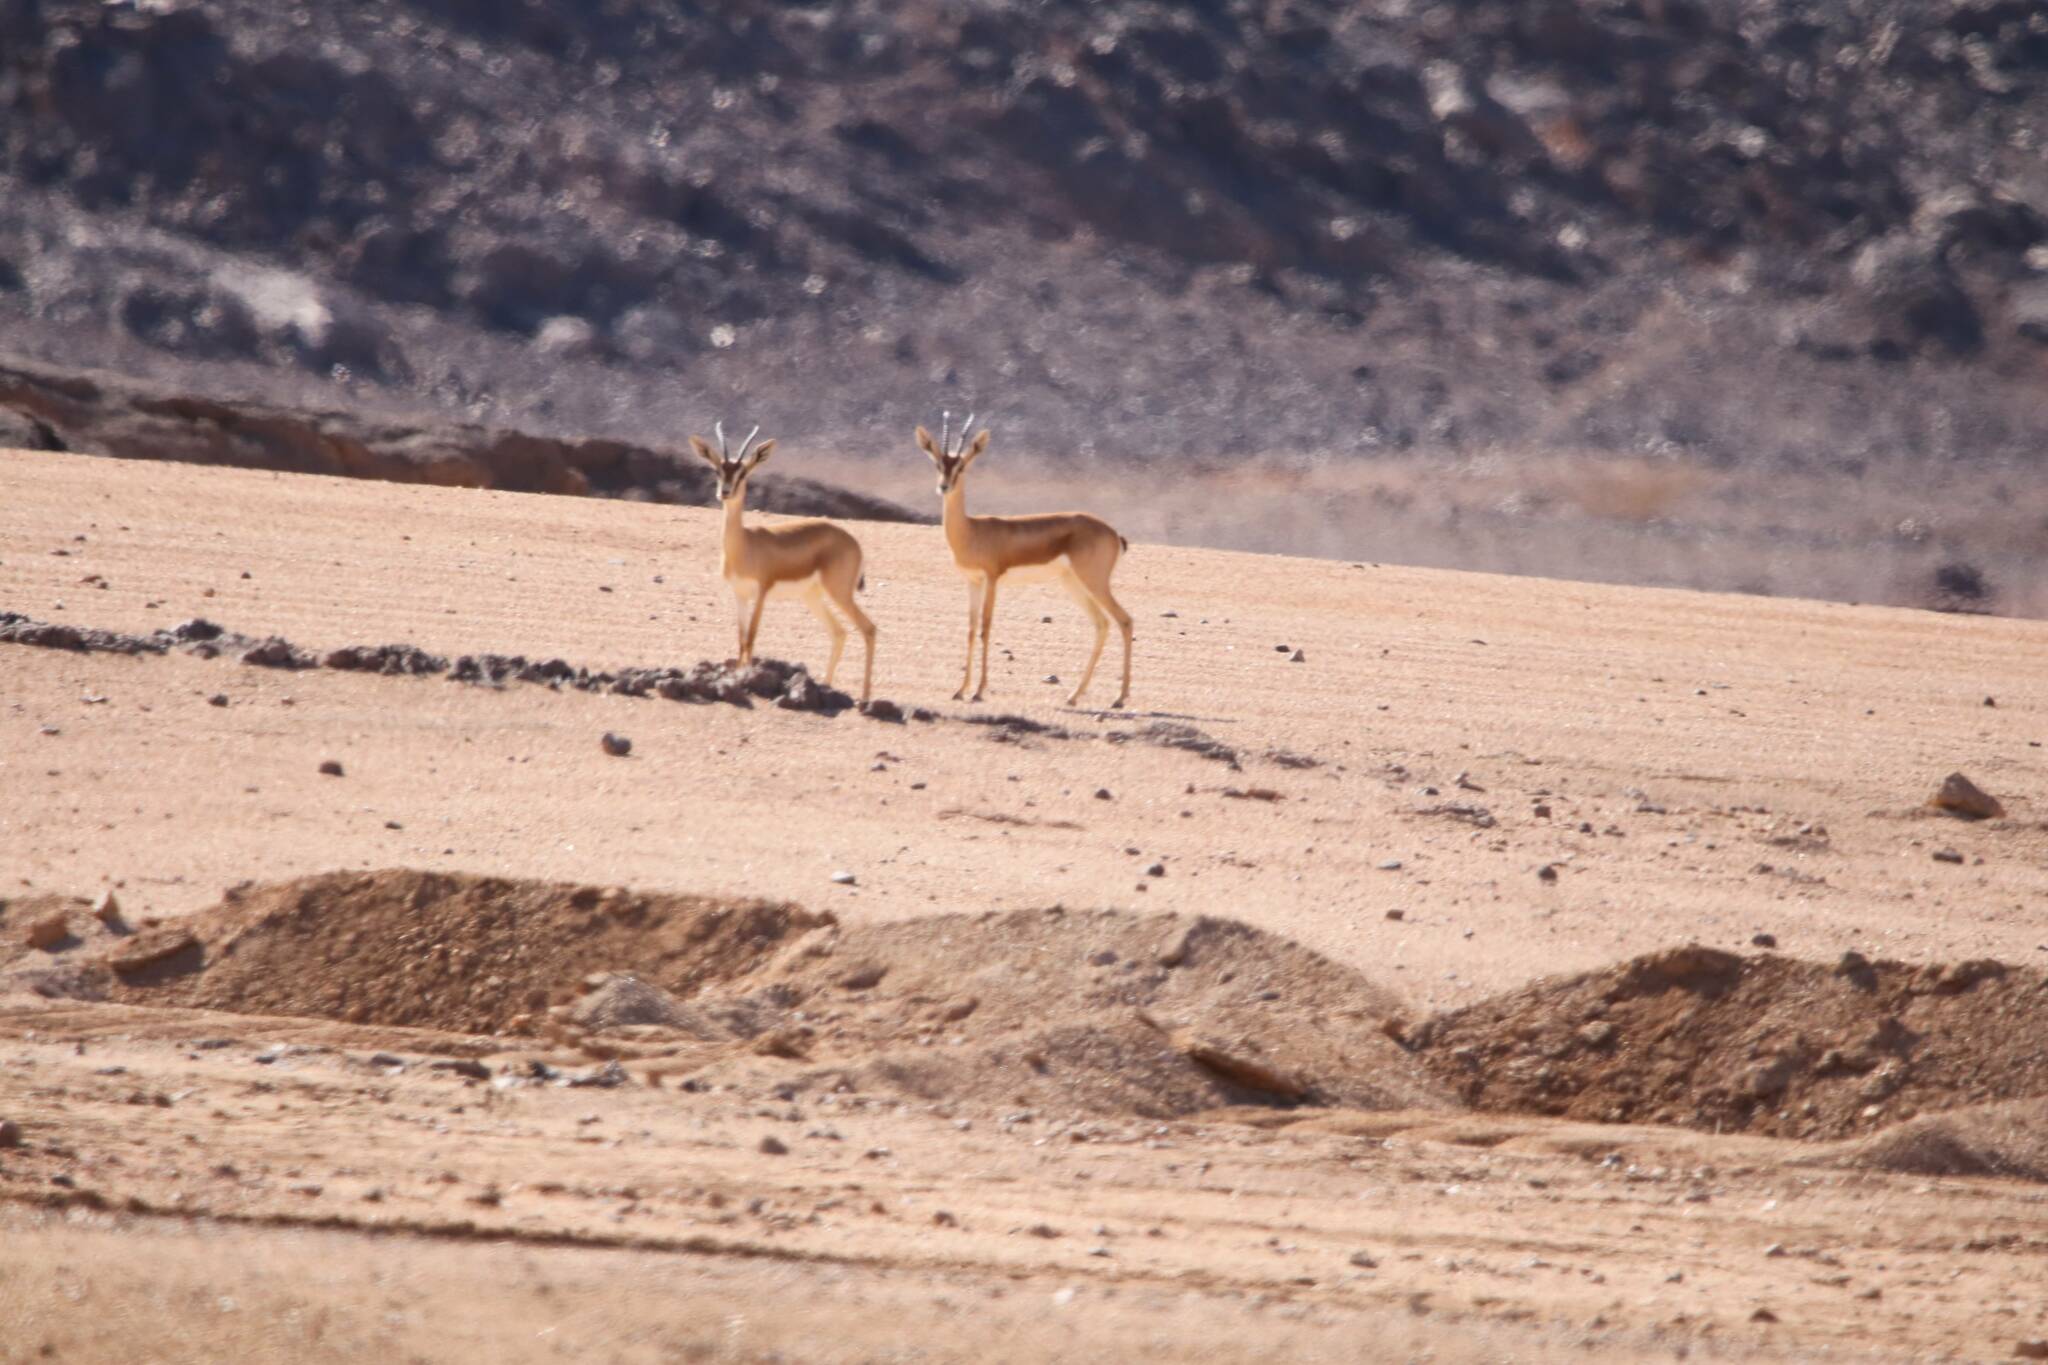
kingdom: Animalia
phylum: Chordata
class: Mammalia
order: Artiodactyla
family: Bovidae
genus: Gazella
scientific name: Gazella dorcas
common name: Dorcas gazelle
